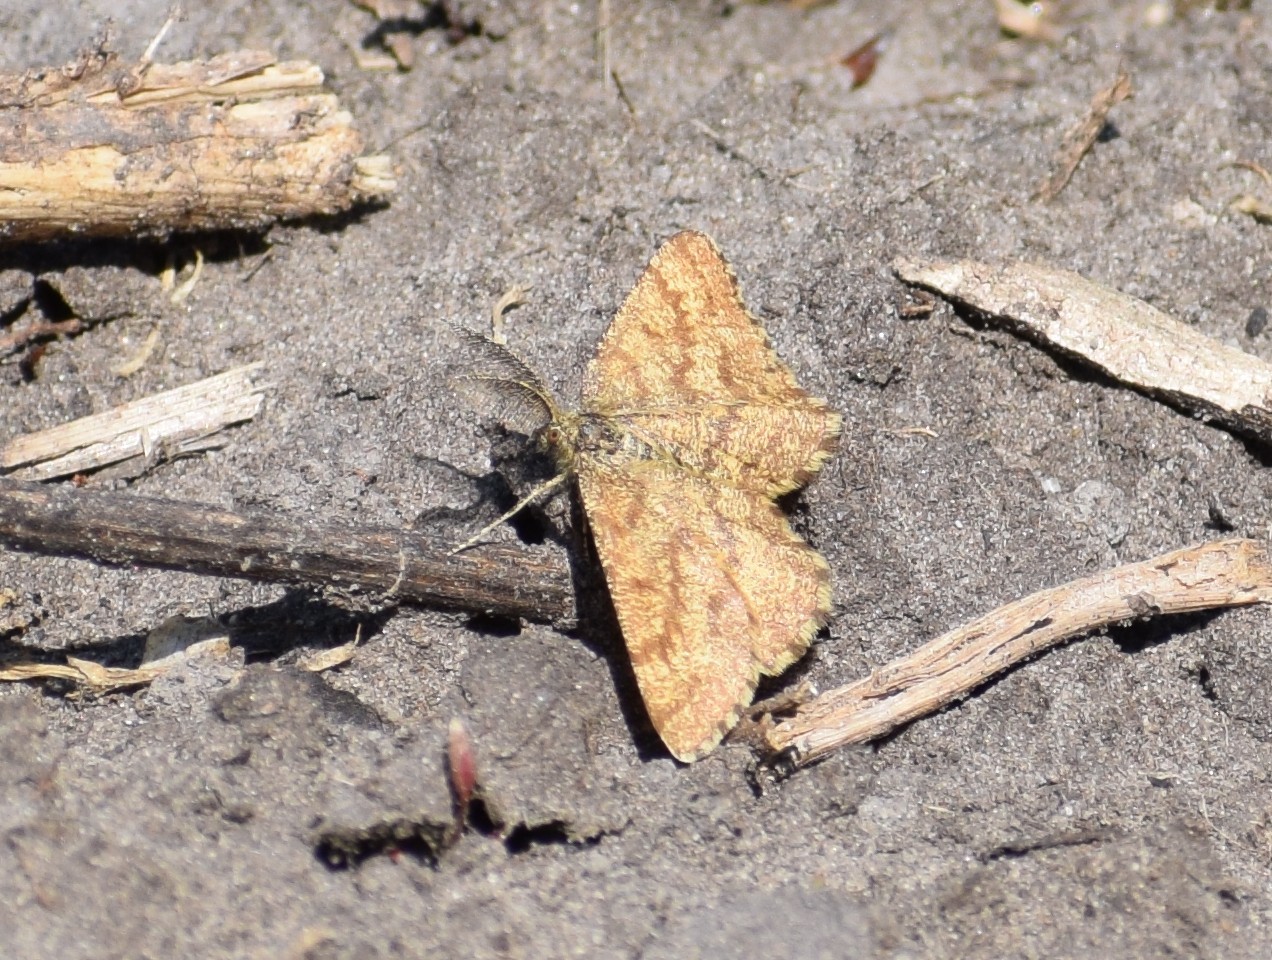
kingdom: Animalia
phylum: Arthropoda
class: Insecta
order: Lepidoptera
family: Geometridae
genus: Ematurga
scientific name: Ematurga atomaria
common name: Common heath
